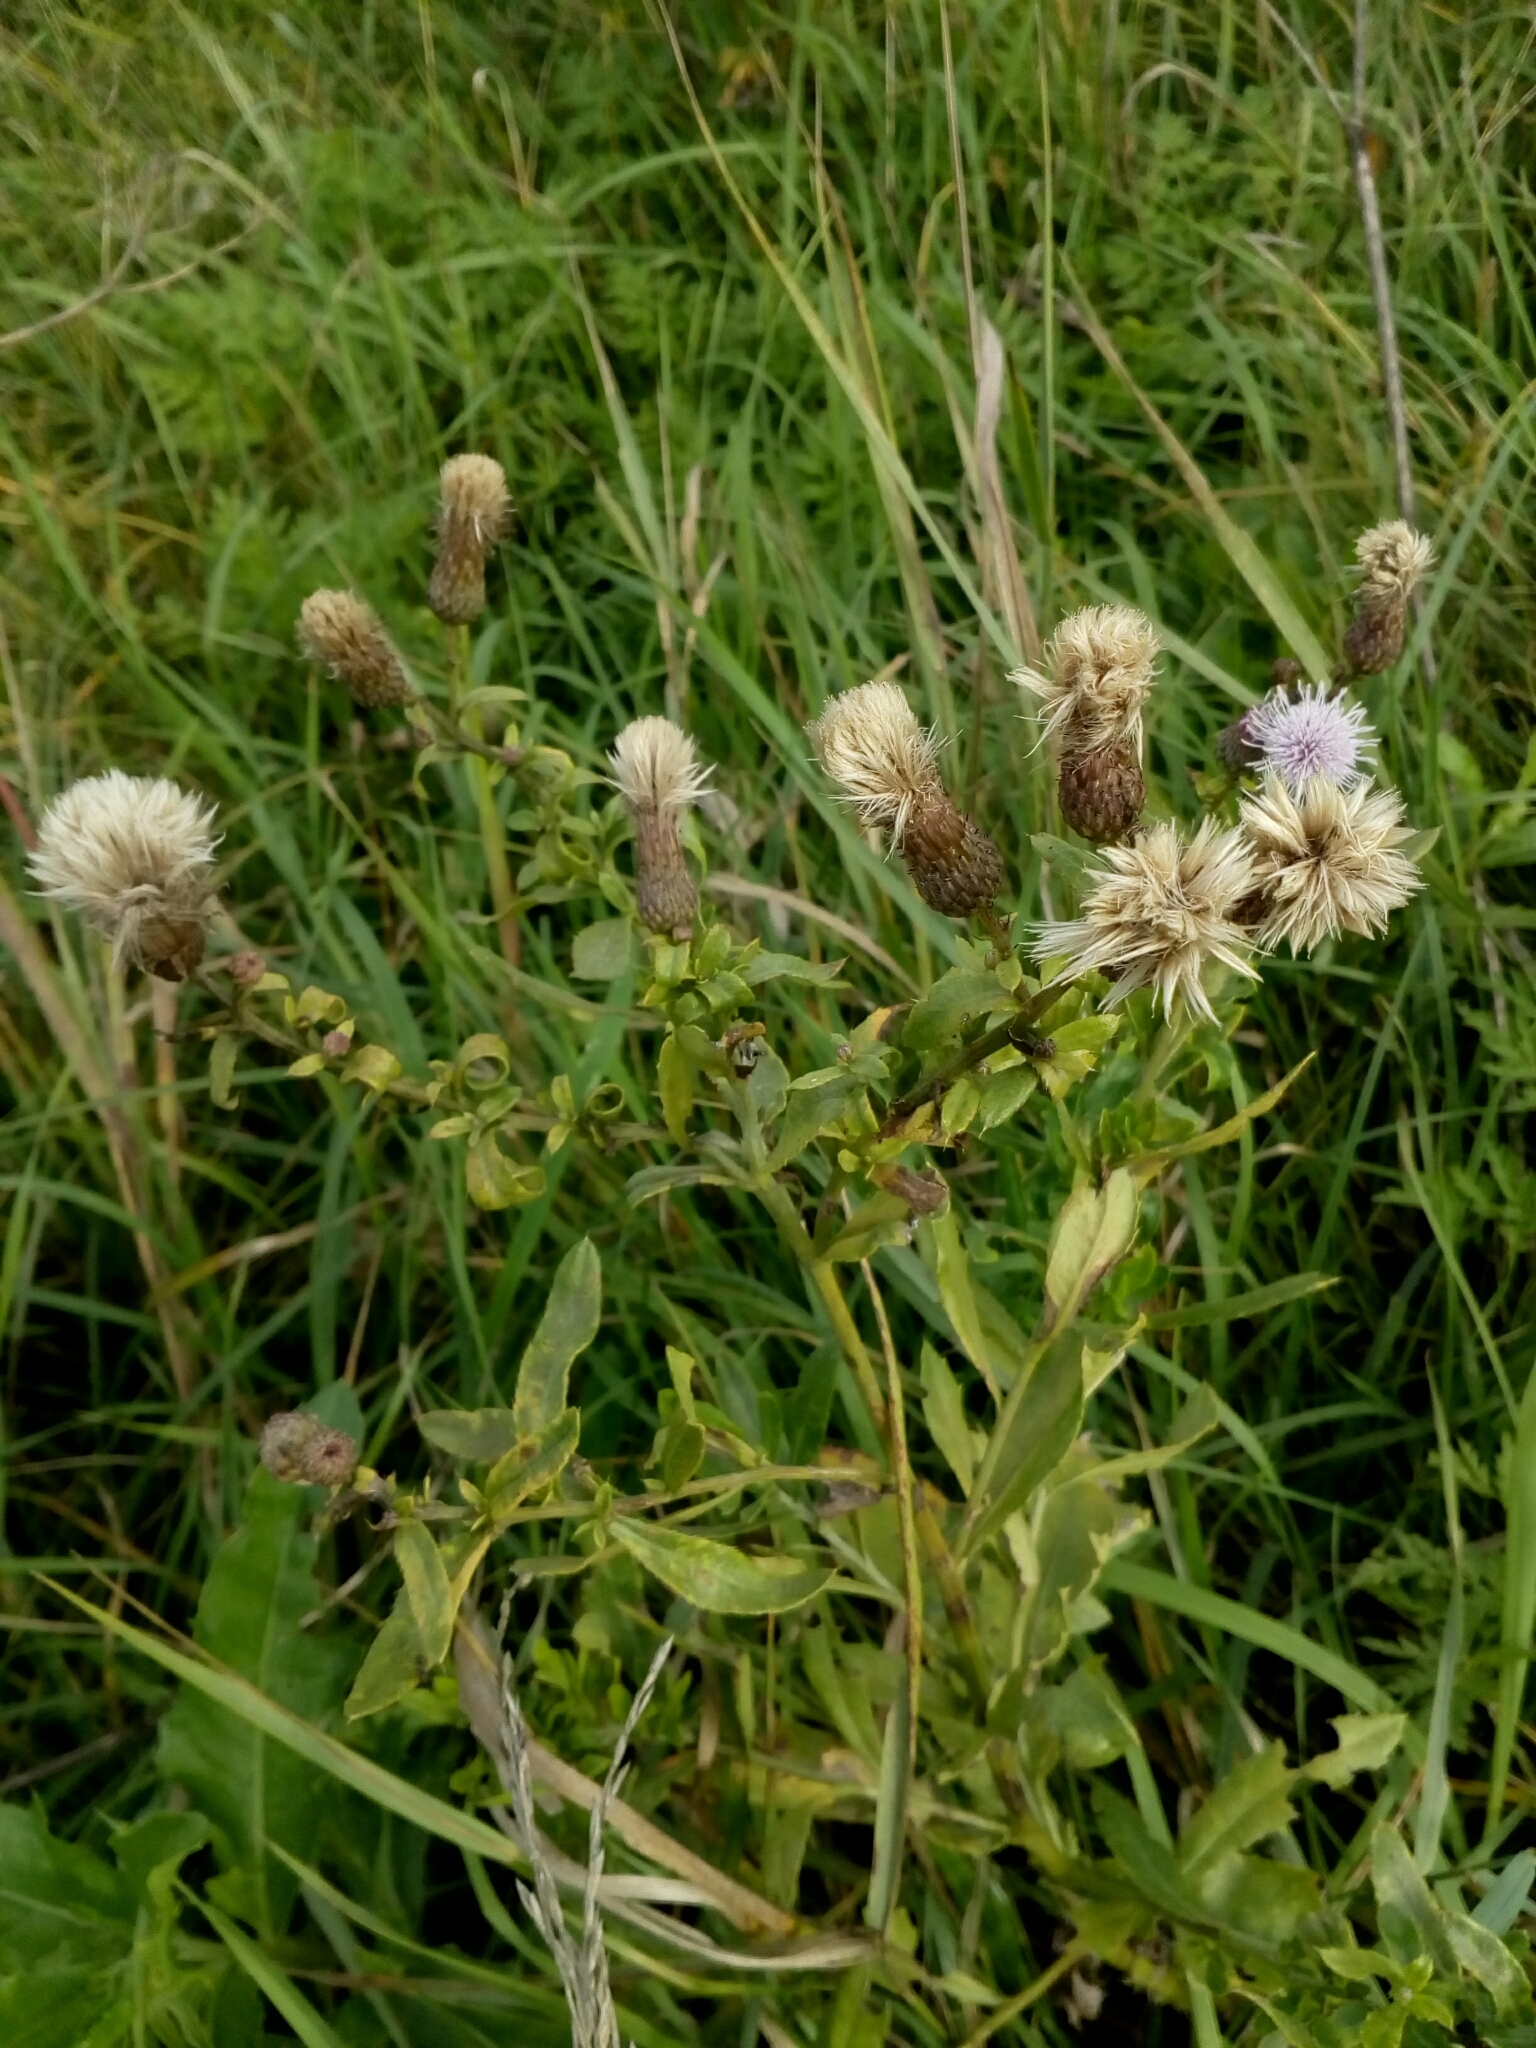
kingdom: Plantae
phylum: Tracheophyta
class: Magnoliopsida
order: Asterales
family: Asteraceae
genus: Cirsium
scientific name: Cirsium arvense
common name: Creeping thistle
